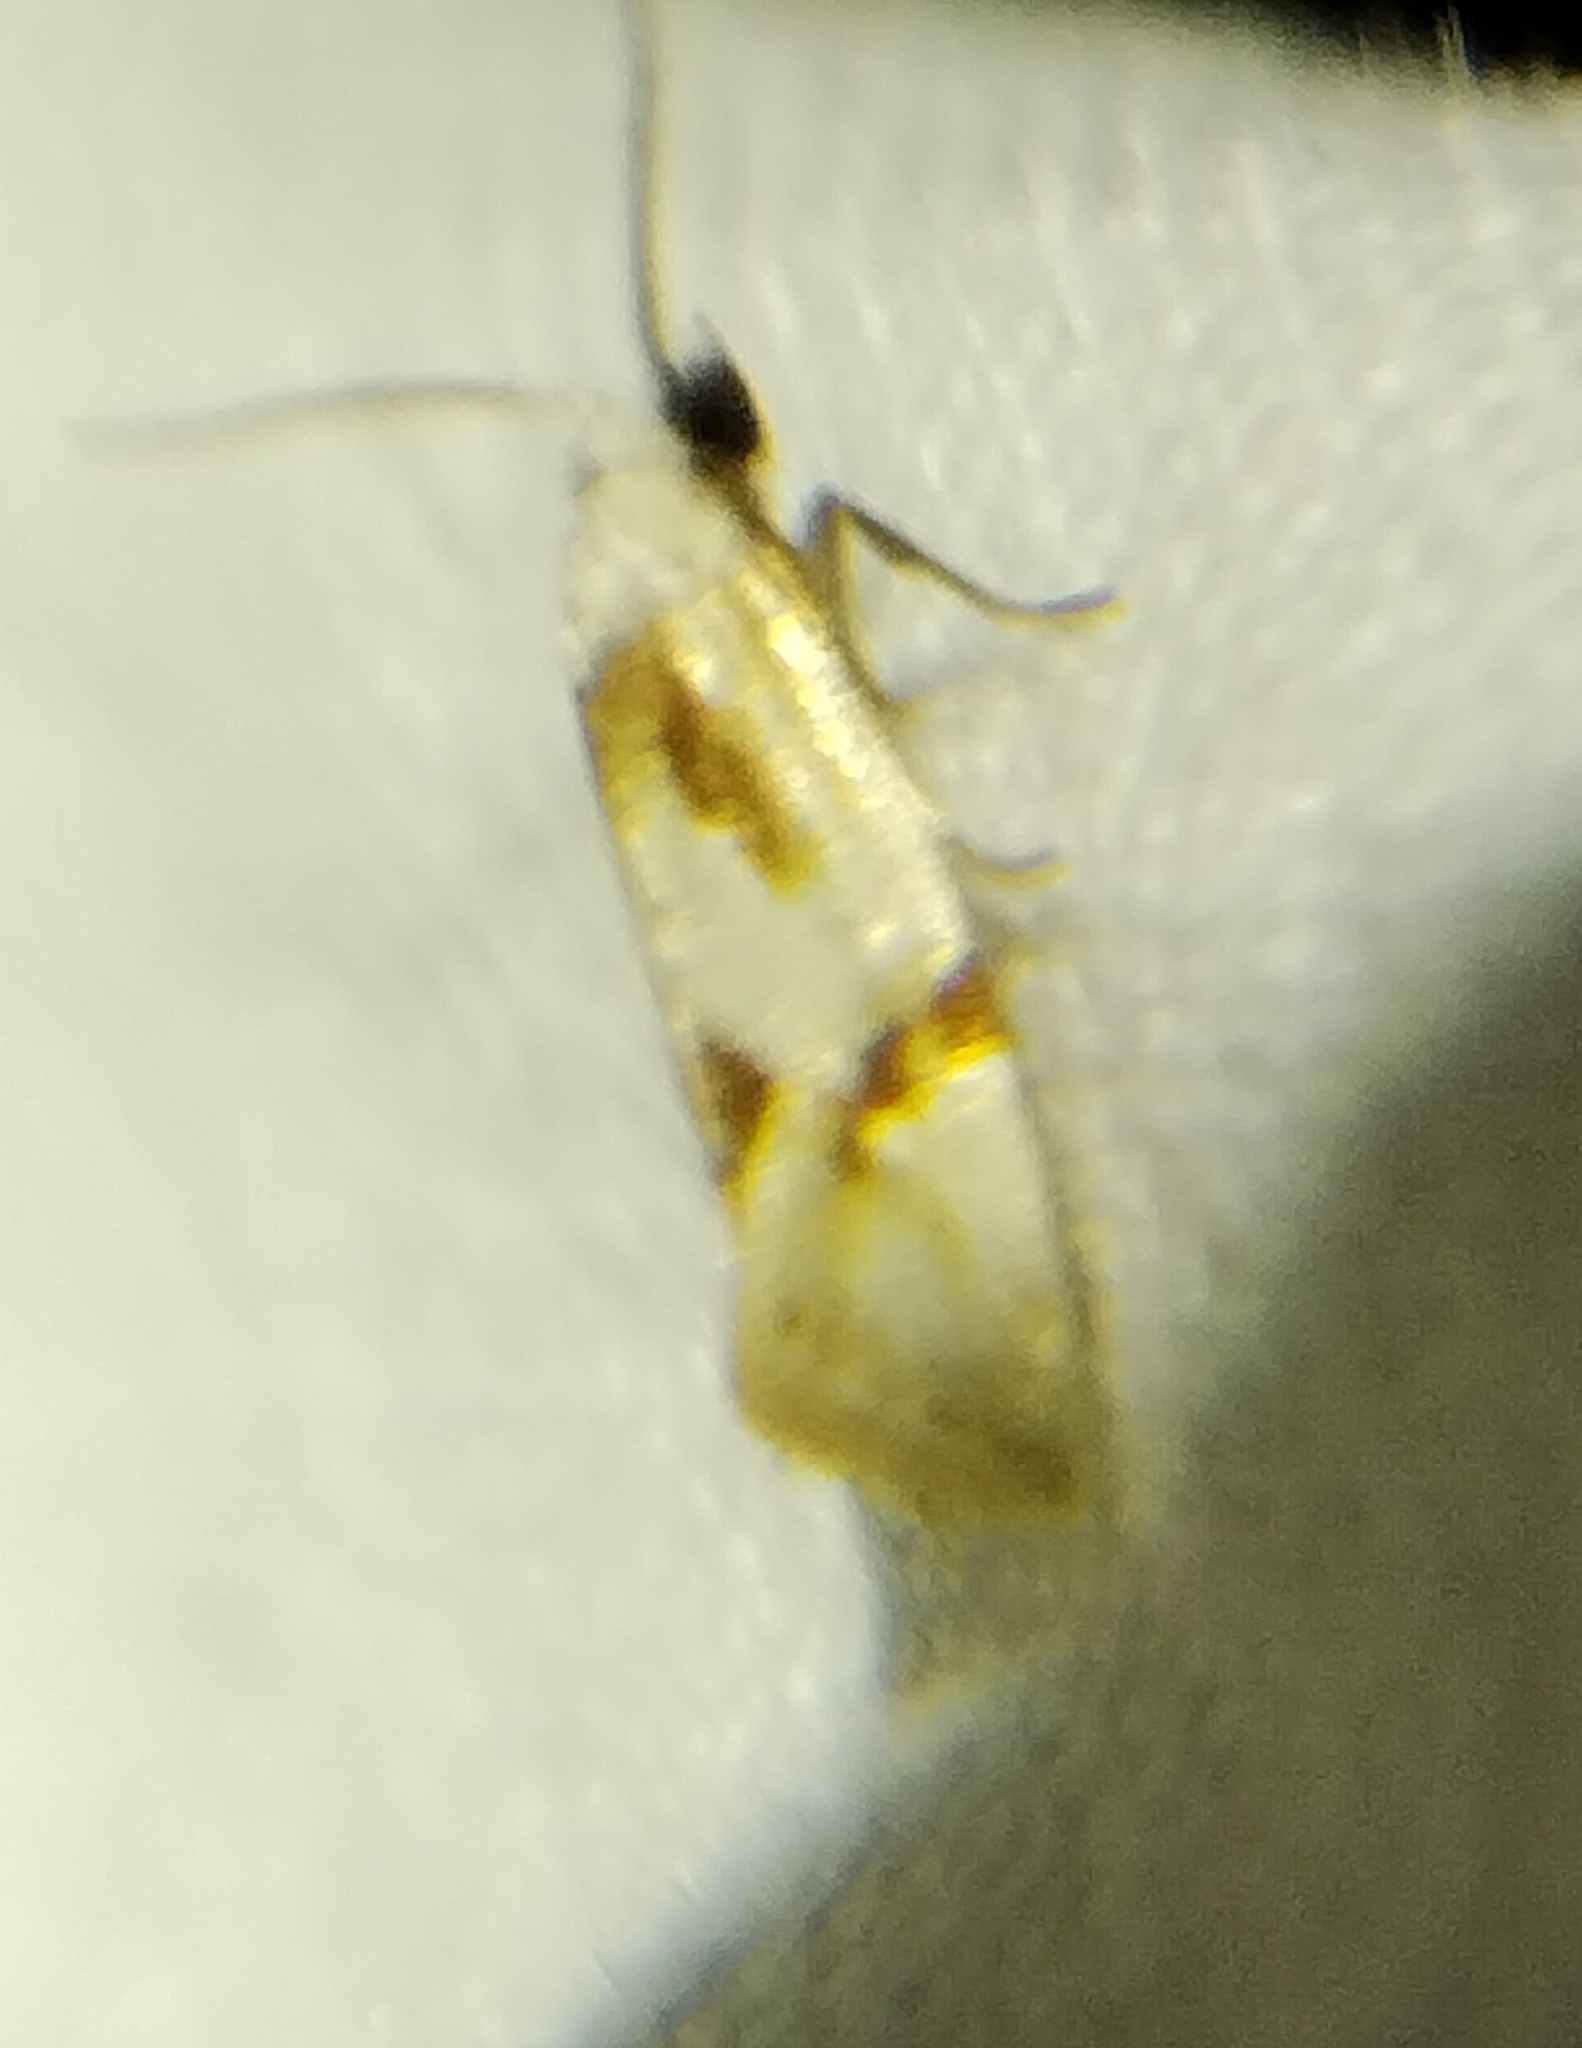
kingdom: Animalia
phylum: Arthropoda
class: Insecta
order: Lepidoptera
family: Tortricidae
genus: Aethes
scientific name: Aethes seriatana
